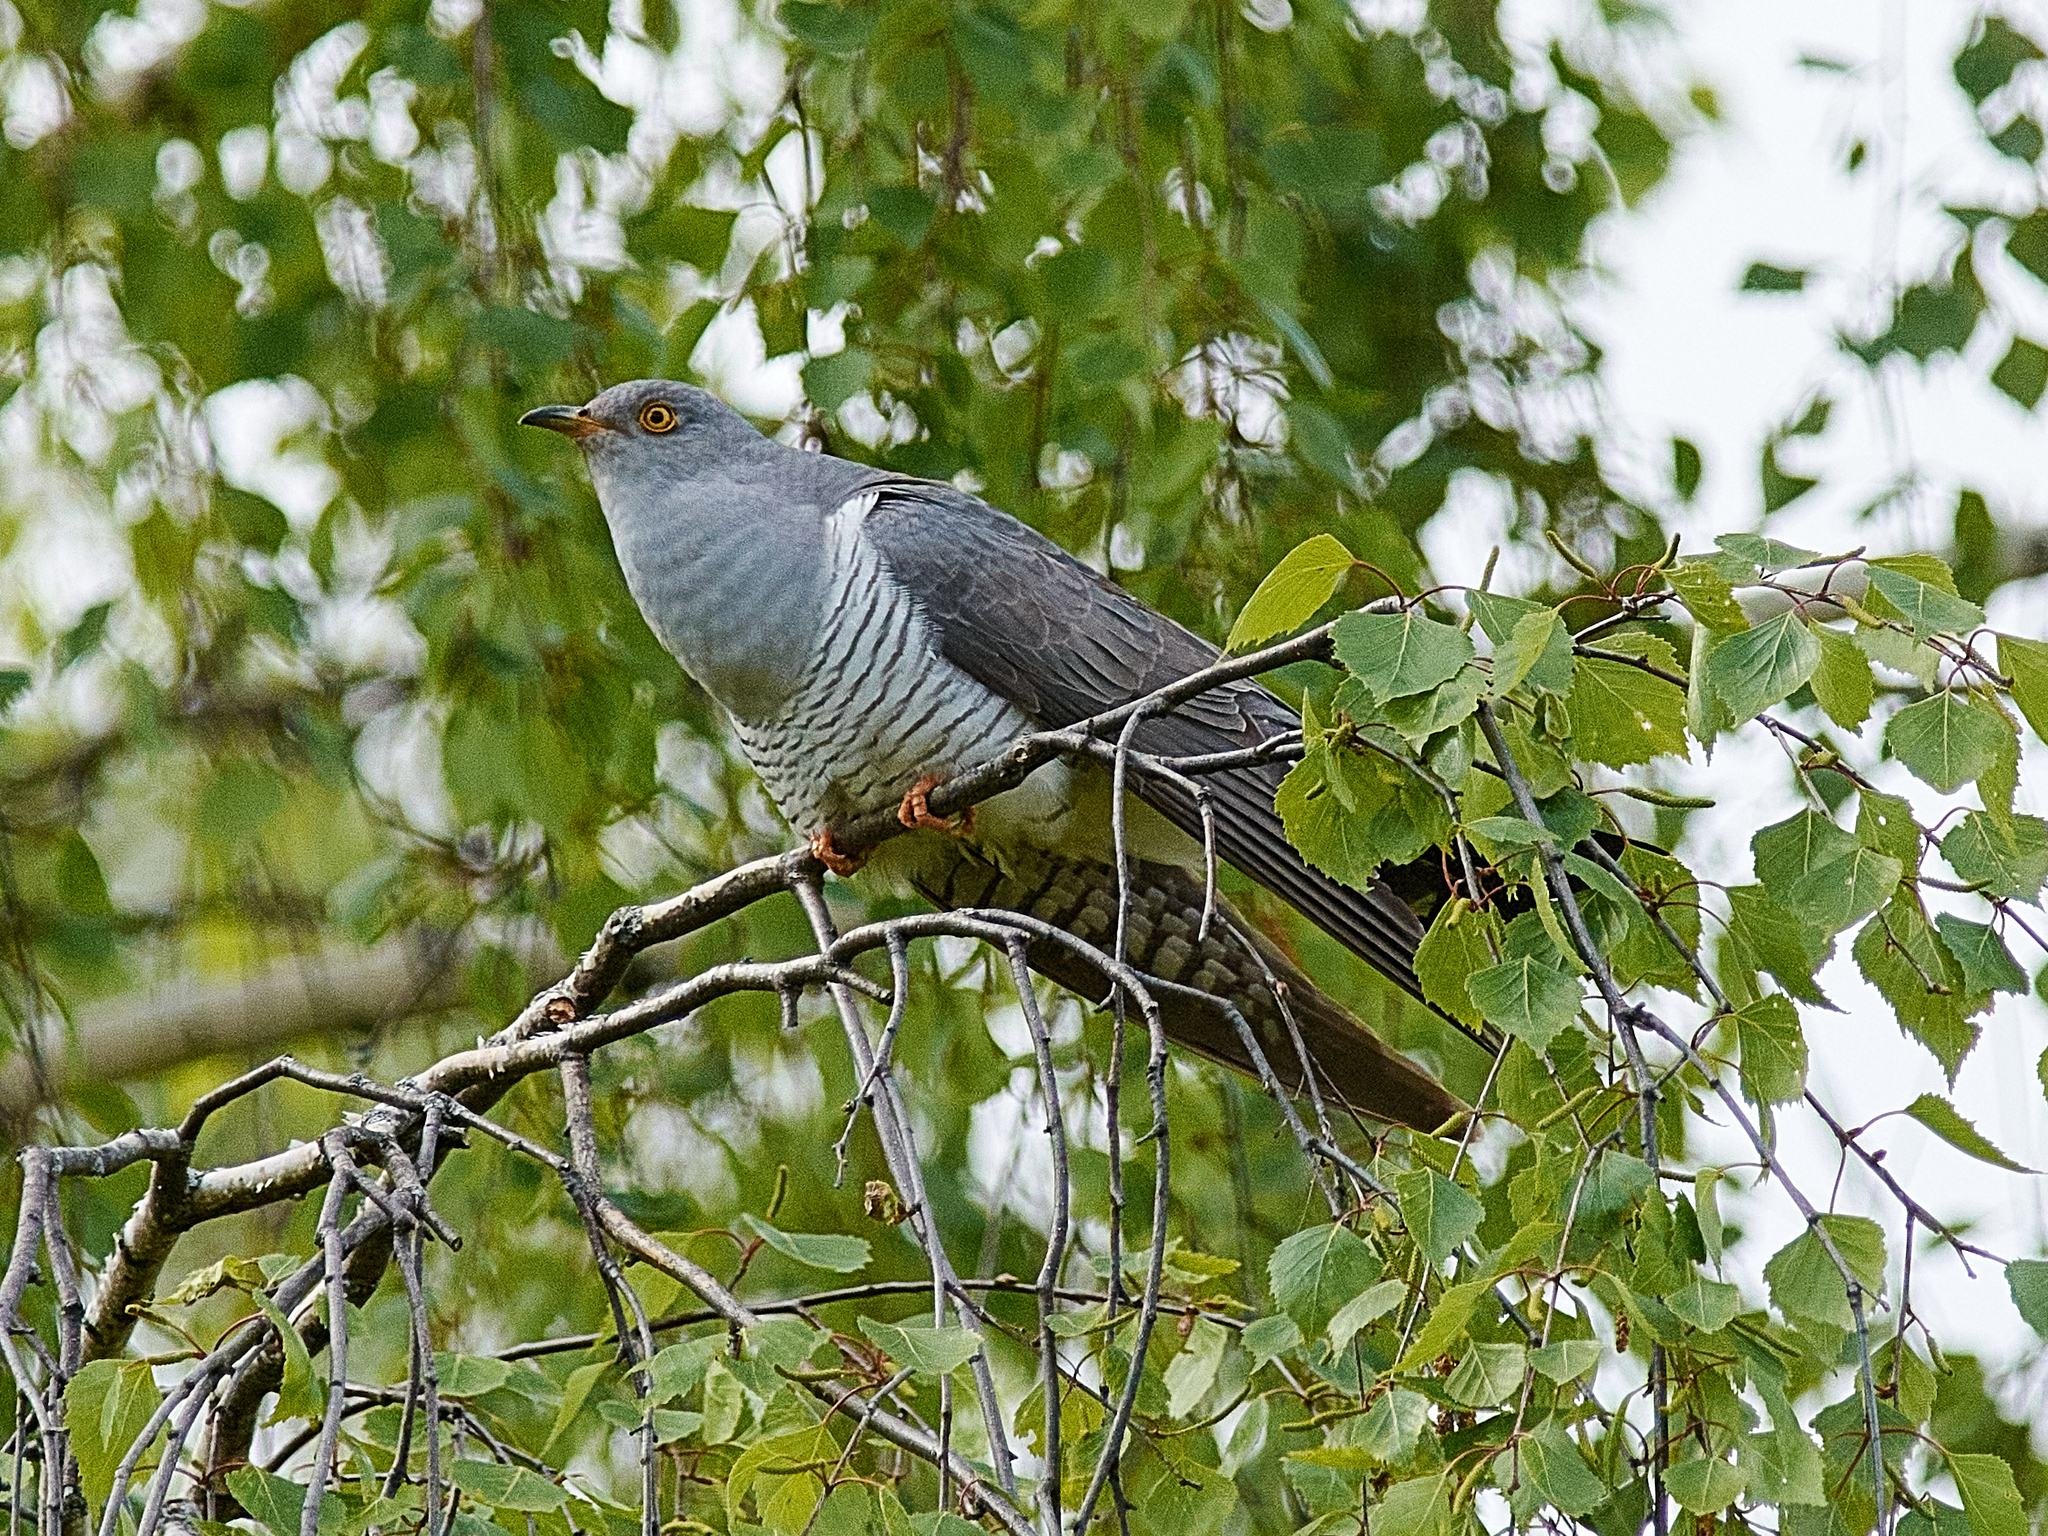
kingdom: Animalia
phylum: Chordata
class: Aves
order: Cuculiformes
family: Cuculidae
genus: Cuculus
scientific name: Cuculus canorus
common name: Common cuckoo
